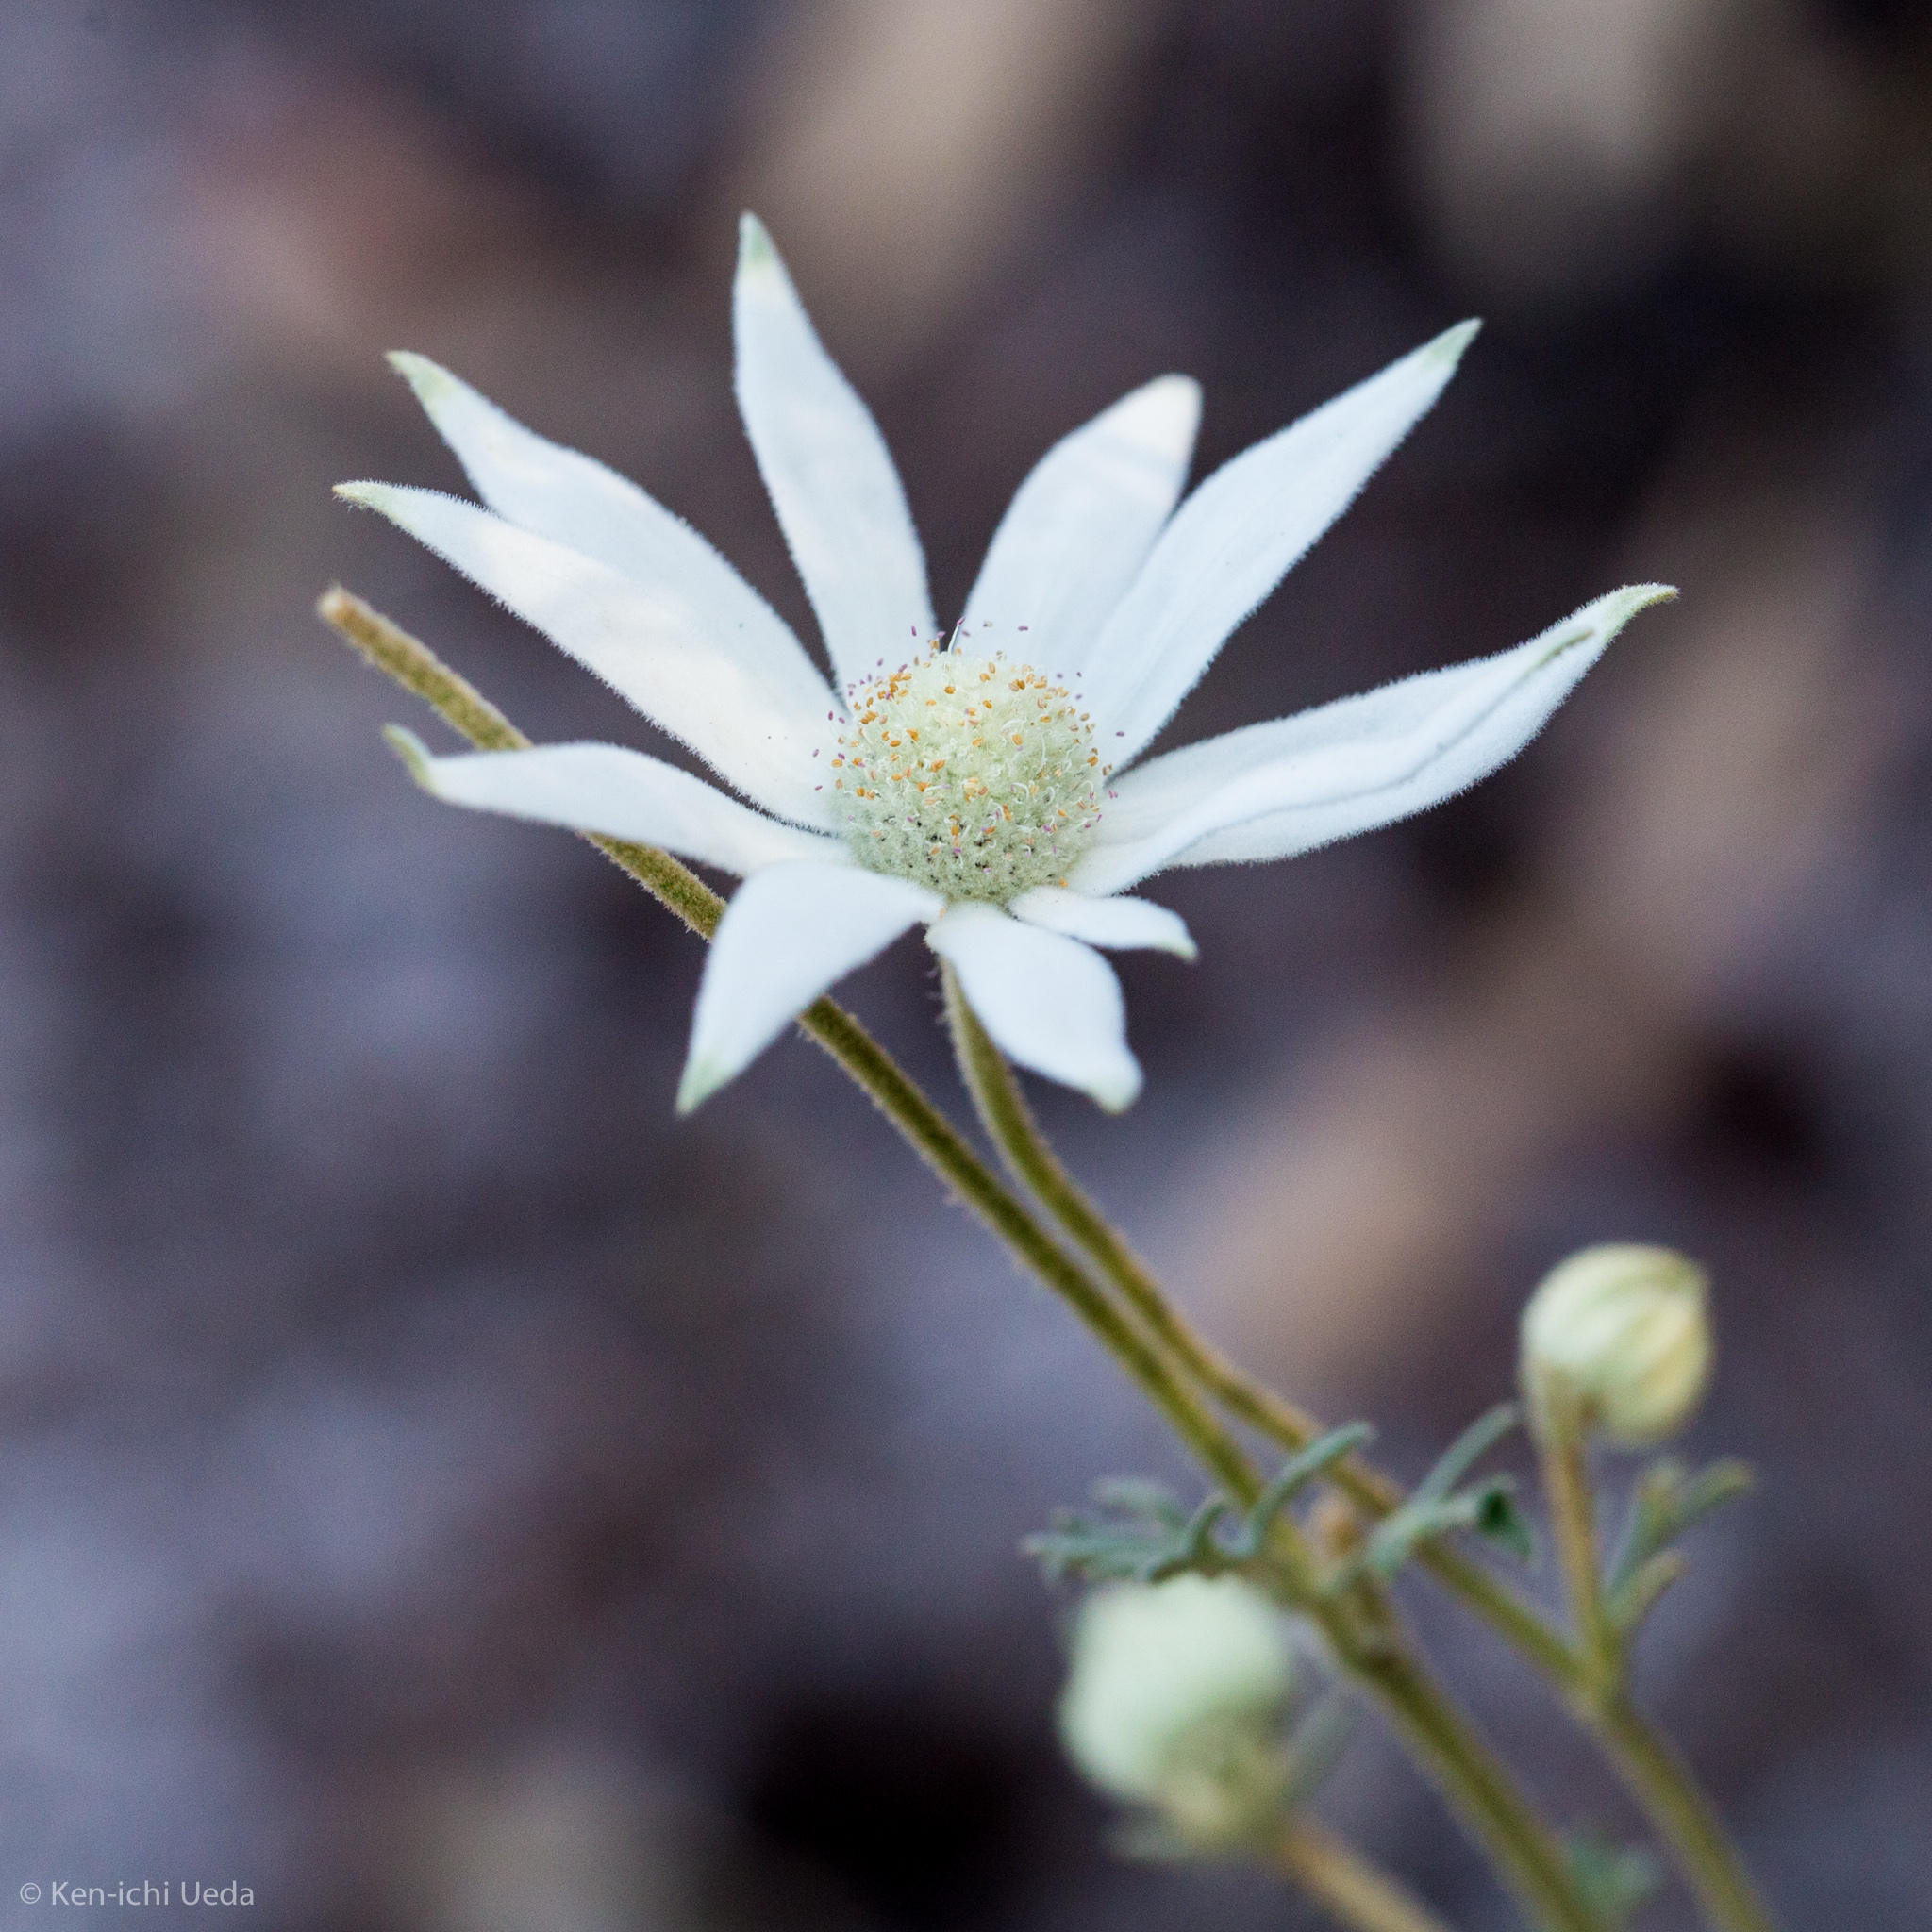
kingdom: Plantae
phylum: Tracheophyta
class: Magnoliopsida
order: Apiales
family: Apiaceae
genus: Actinotus
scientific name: Actinotus helianthi
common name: Flannel-flower
